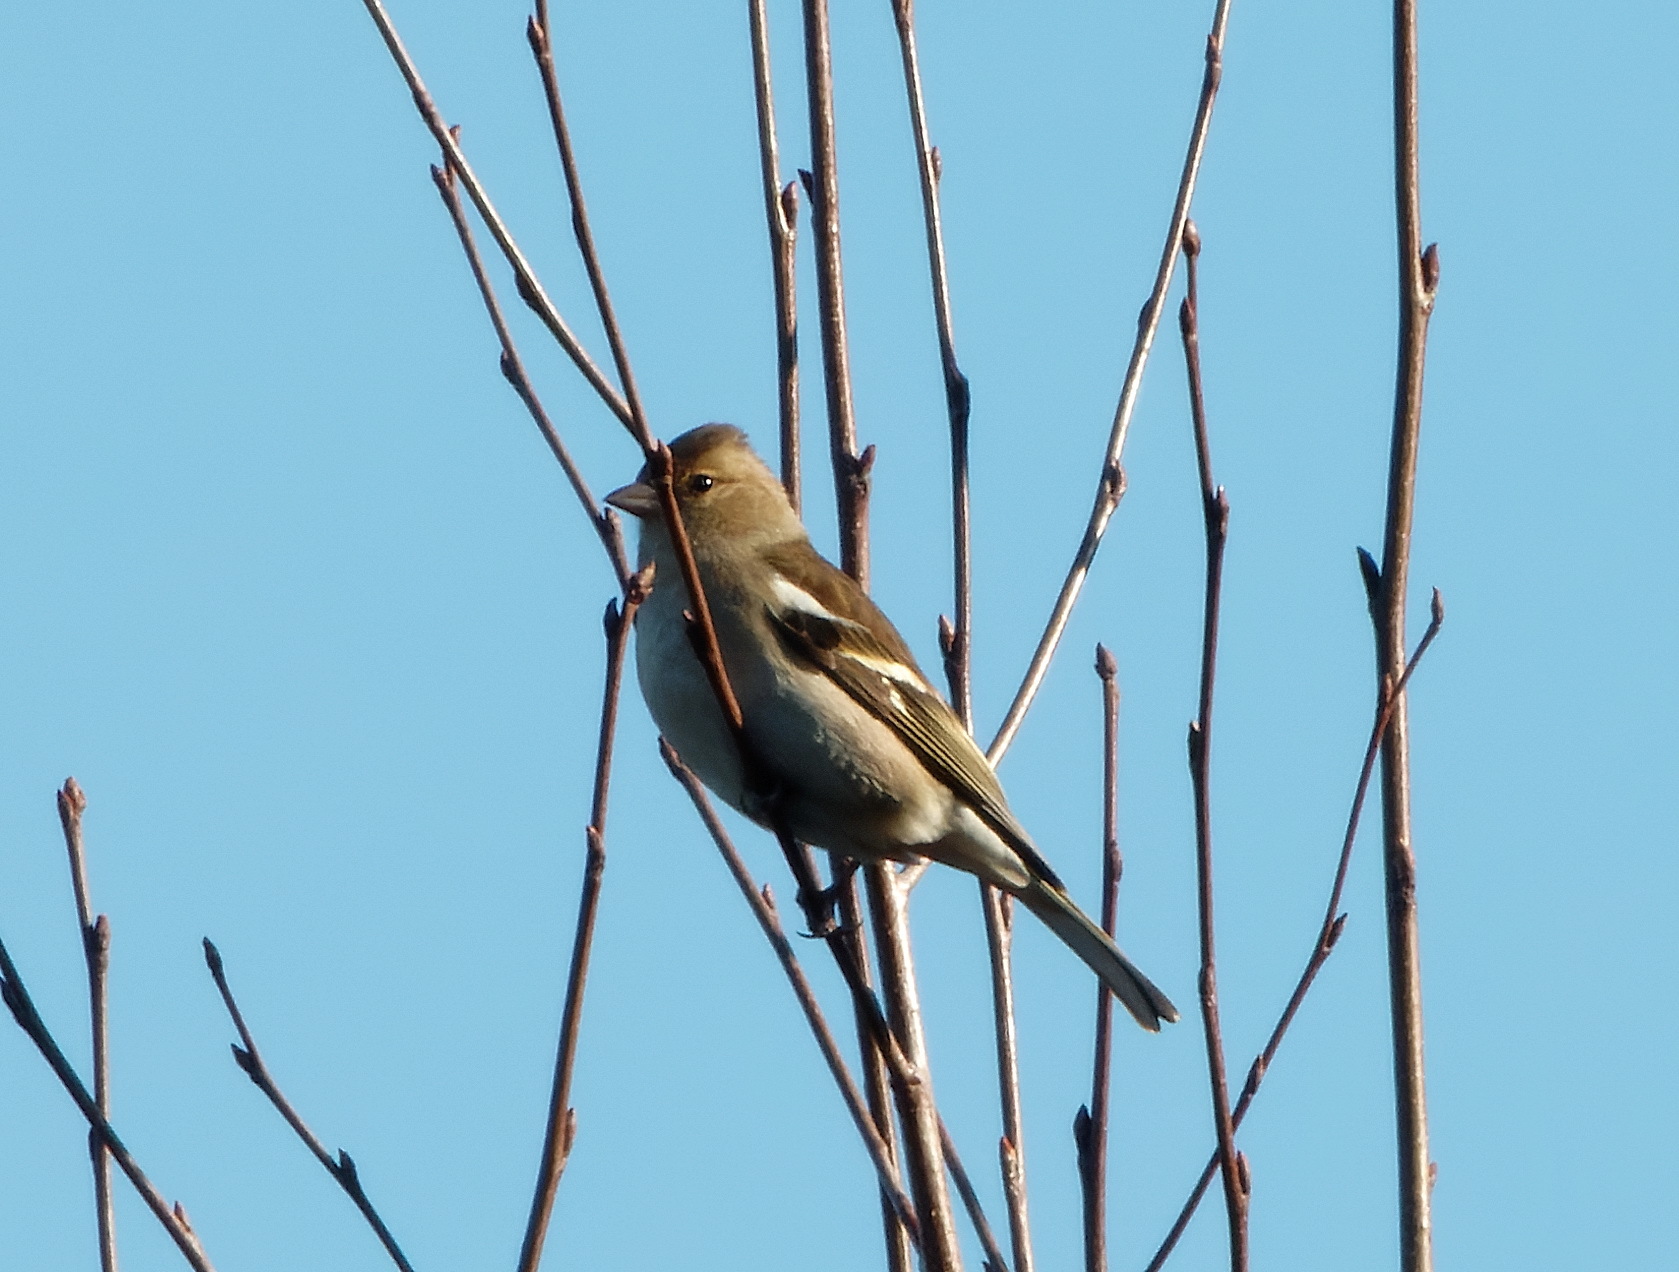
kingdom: Animalia
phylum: Chordata
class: Aves
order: Passeriformes
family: Fringillidae
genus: Fringilla
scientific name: Fringilla coelebs
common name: Common chaffinch
